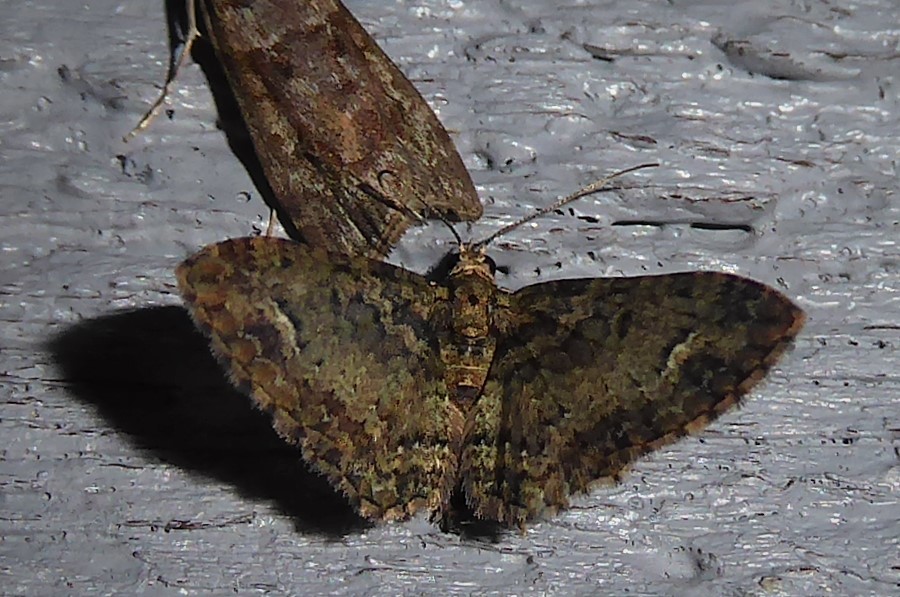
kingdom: Animalia
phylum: Arthropoda
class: Insecta
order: Lepidoptera
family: Geometridae
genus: Pasiphilodes
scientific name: Pasiphilodes testulata
